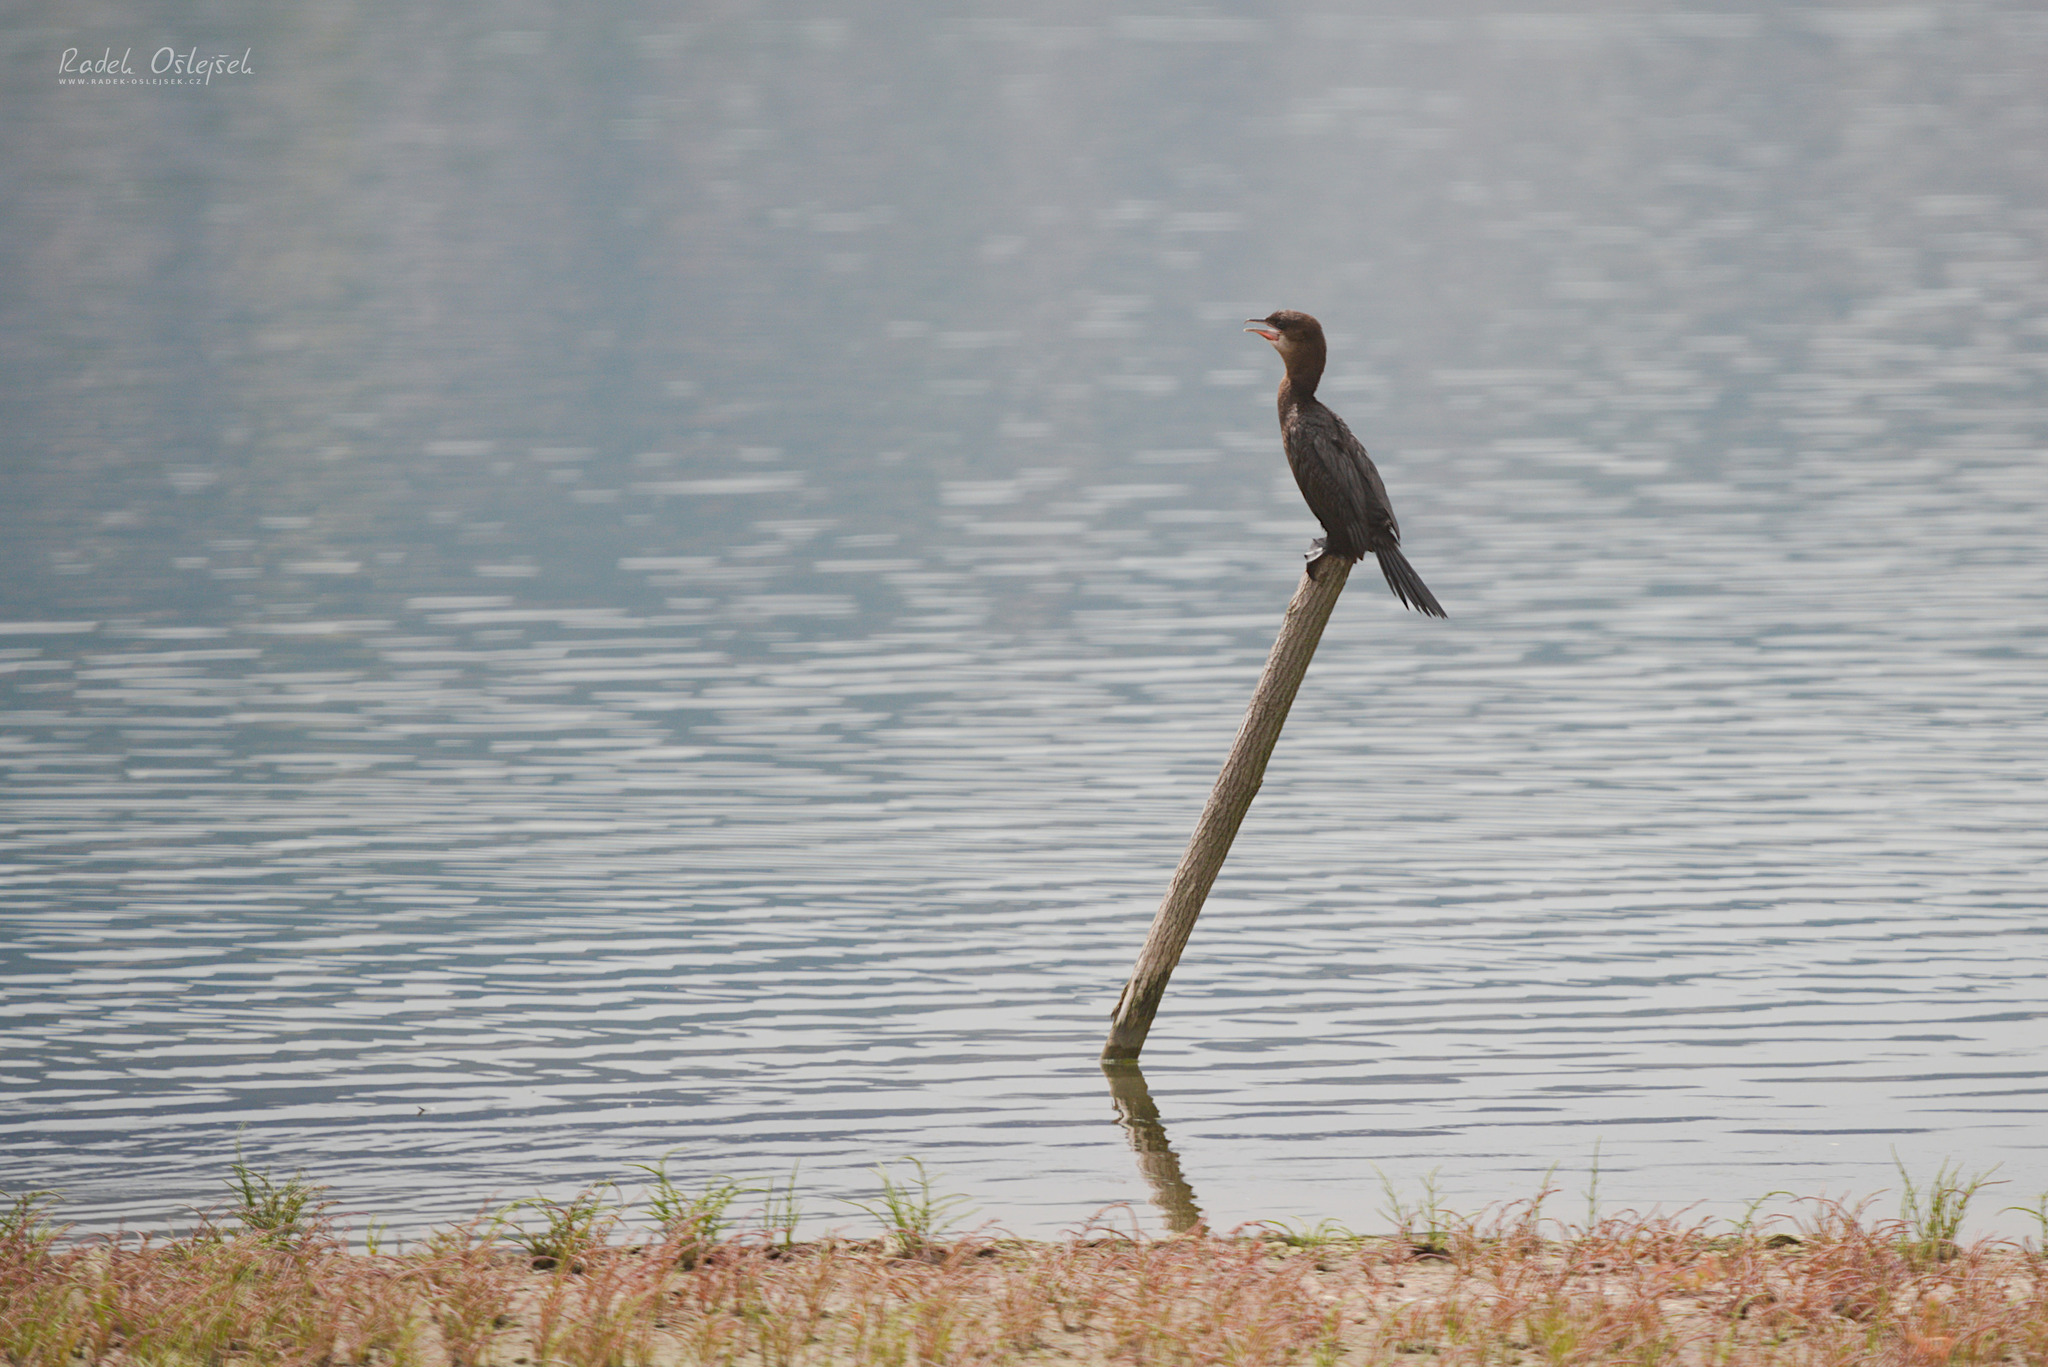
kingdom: Animalia
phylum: Chordata
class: Aves
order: Suliformes
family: Phalacrocoracidae
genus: Microcarbo
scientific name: Microcarbo pygmaeus
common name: Pygmy cormorant
